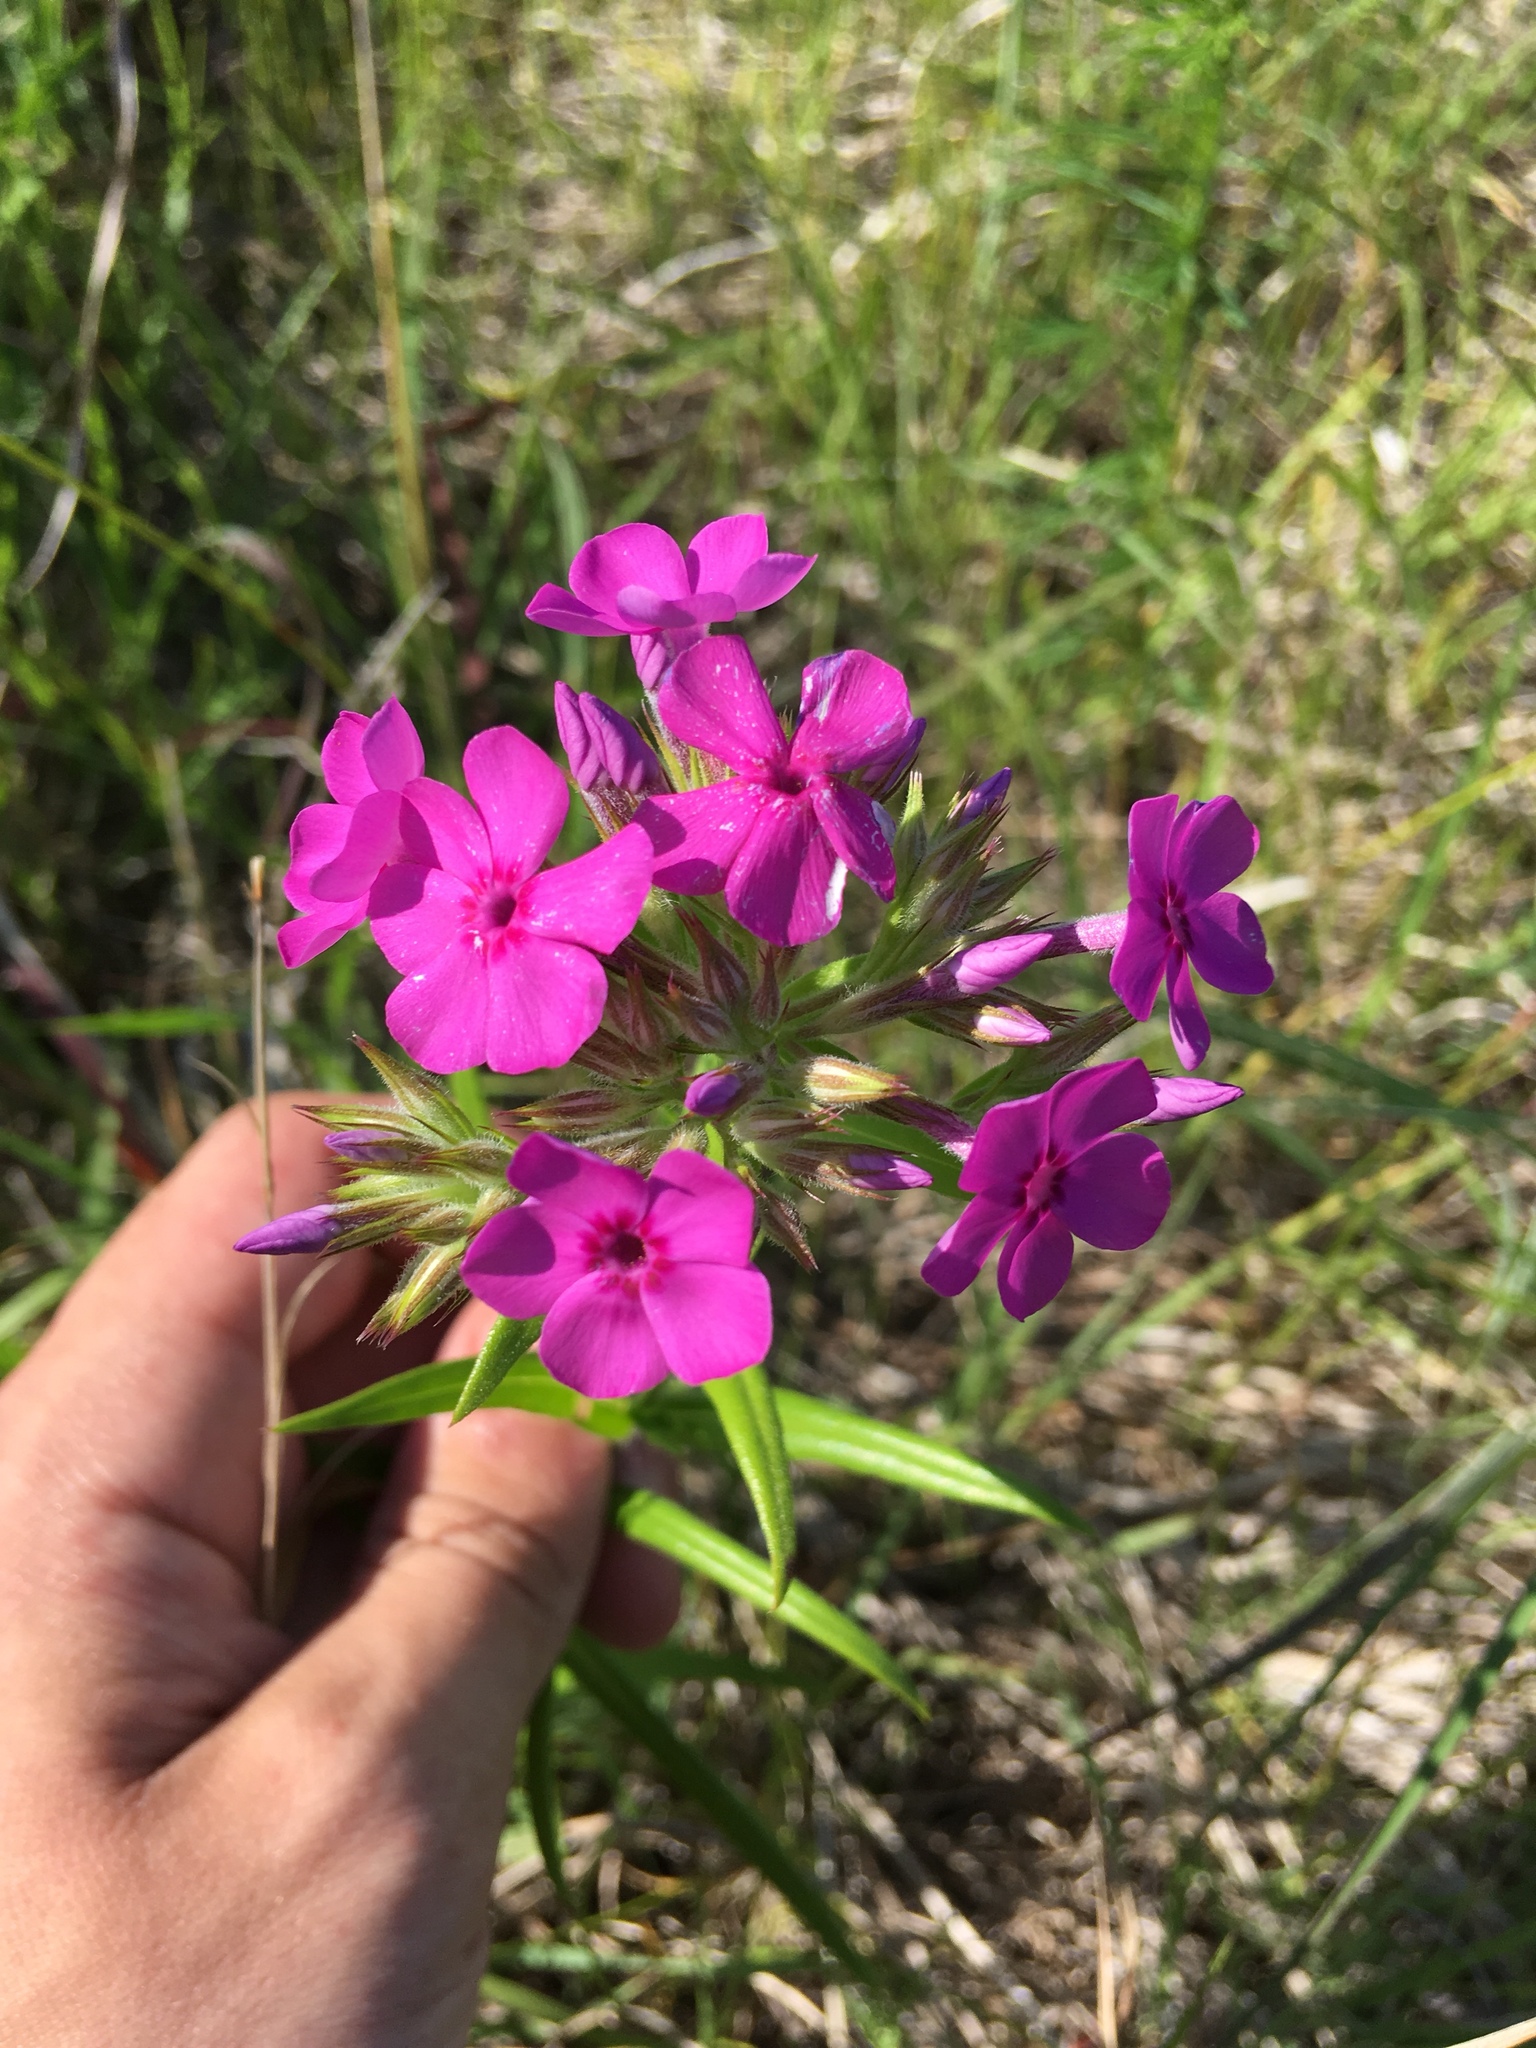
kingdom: Plantae
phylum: Tracheophyta
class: Magnoliopsida
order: Ericales
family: Polemoniaceae
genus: Phlox
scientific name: Phlox pilosa
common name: Prairie phlox
